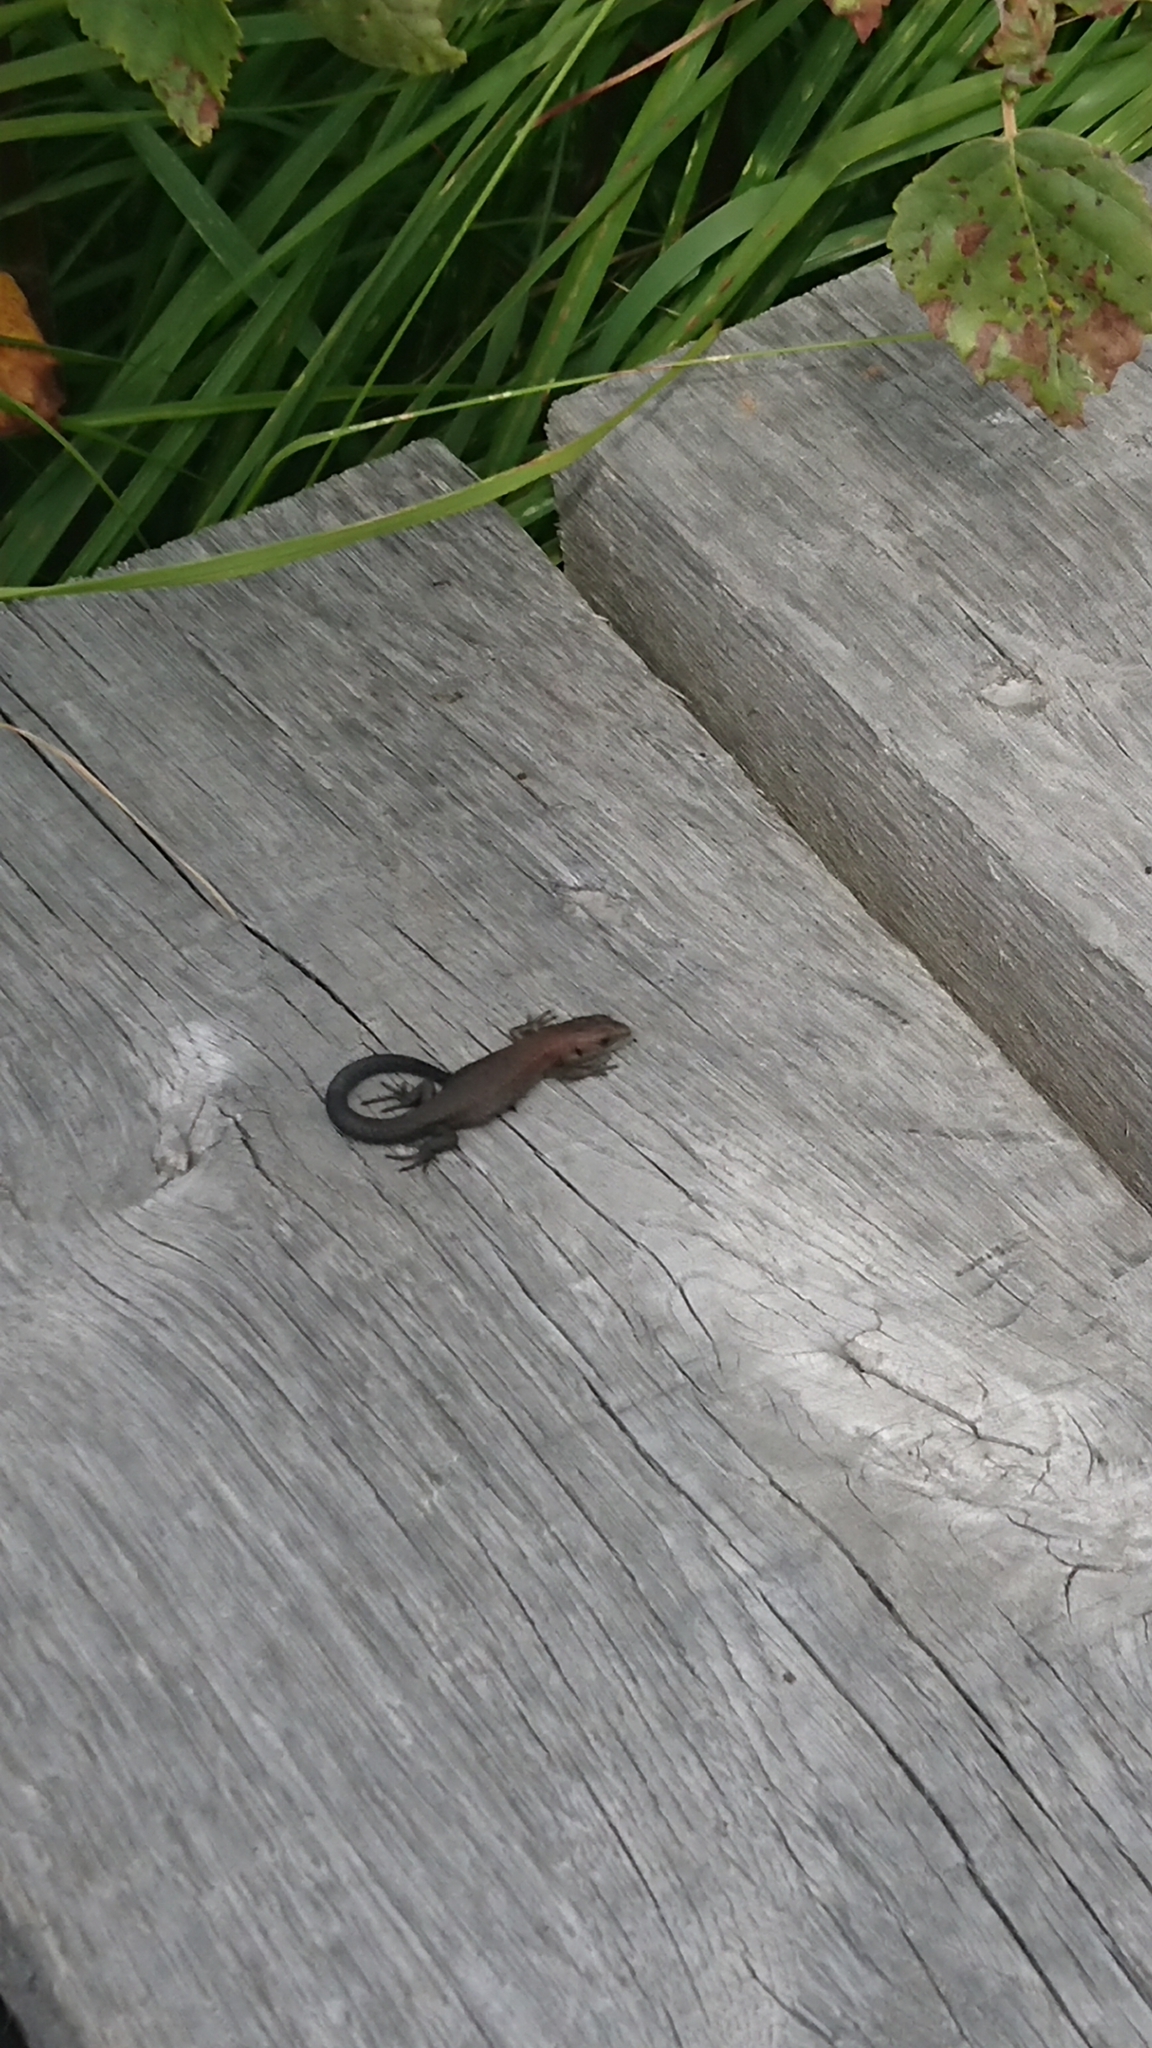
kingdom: Animalia
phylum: Chordata
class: Squamata
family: Lacertidae
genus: Zootoca
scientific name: Zootoca vivipara
